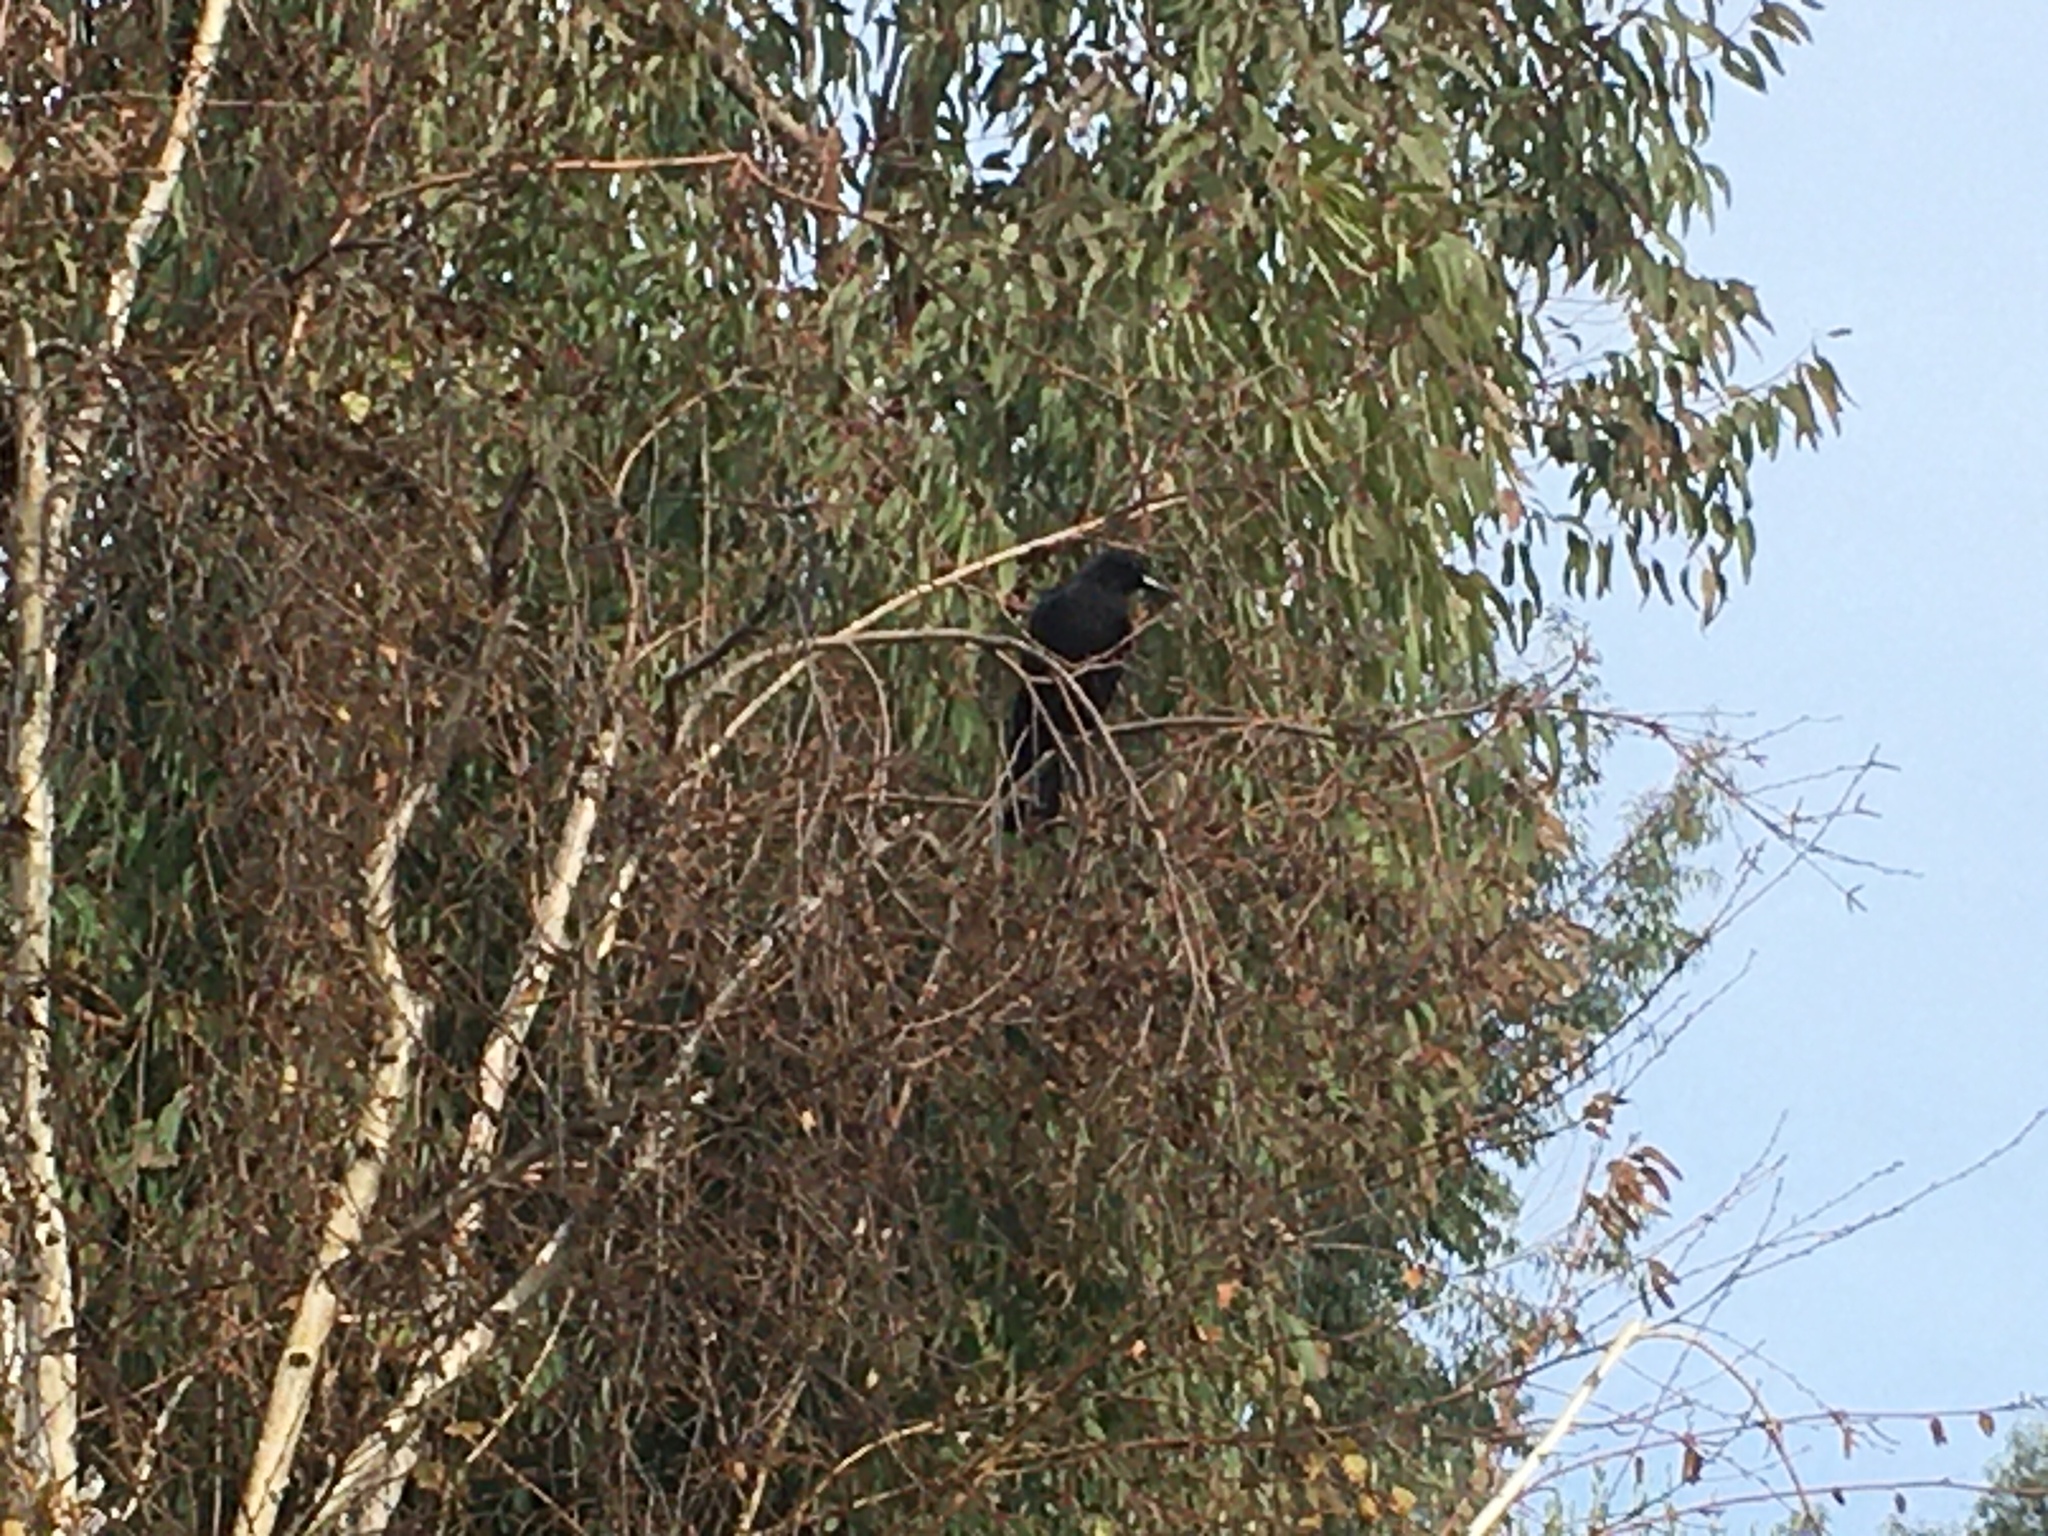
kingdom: Animalia
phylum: Chordata
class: Aves
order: Passeriformes
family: Corvidae
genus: Corvus
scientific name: Corvus brachyrhynchos
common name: American crow
